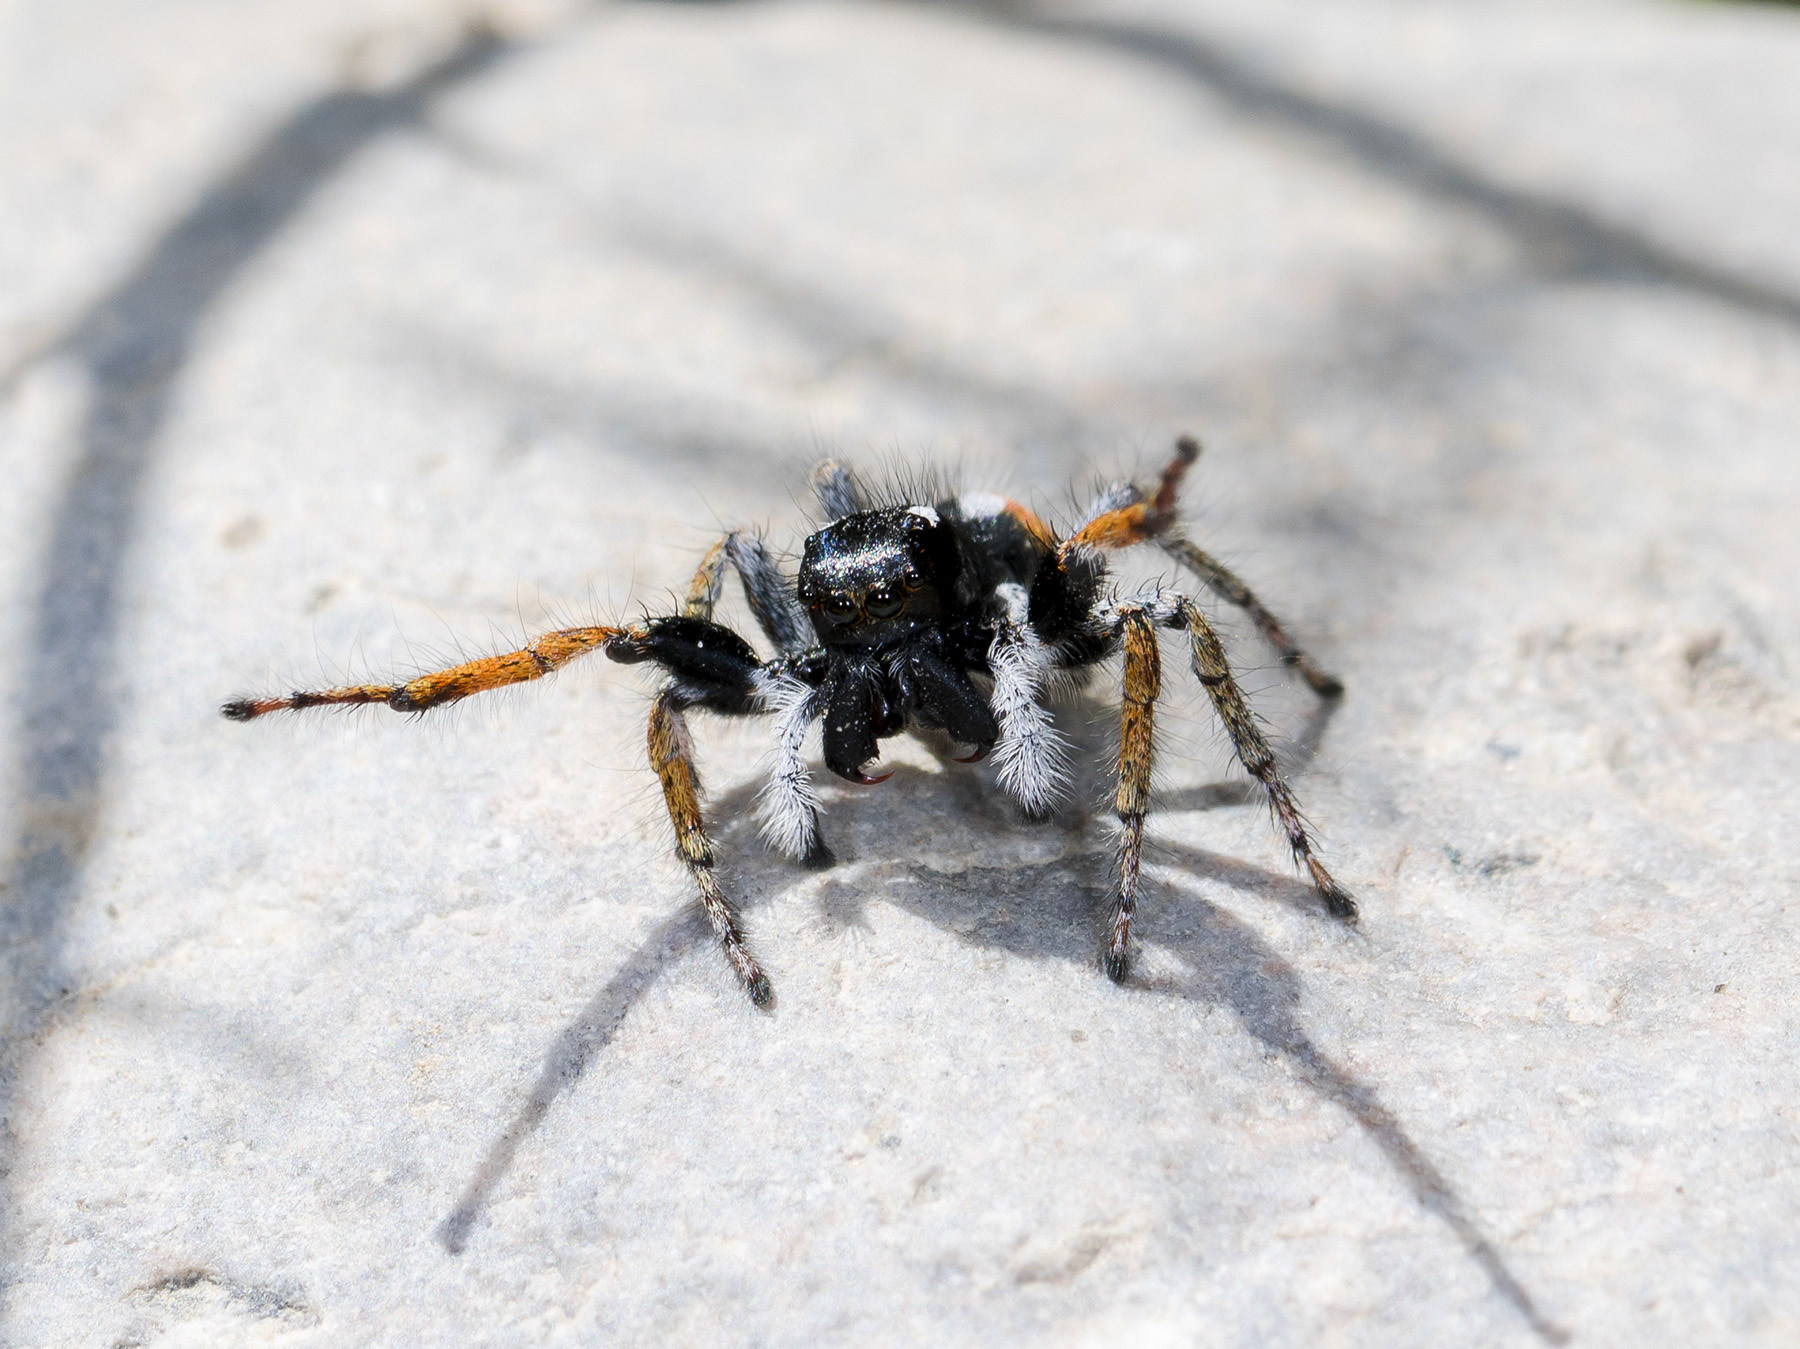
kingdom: Animalia
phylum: Arthropoda
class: Arachnida
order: Araneae
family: Salticidae
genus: Philaeus
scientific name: Philaeus chrysops
